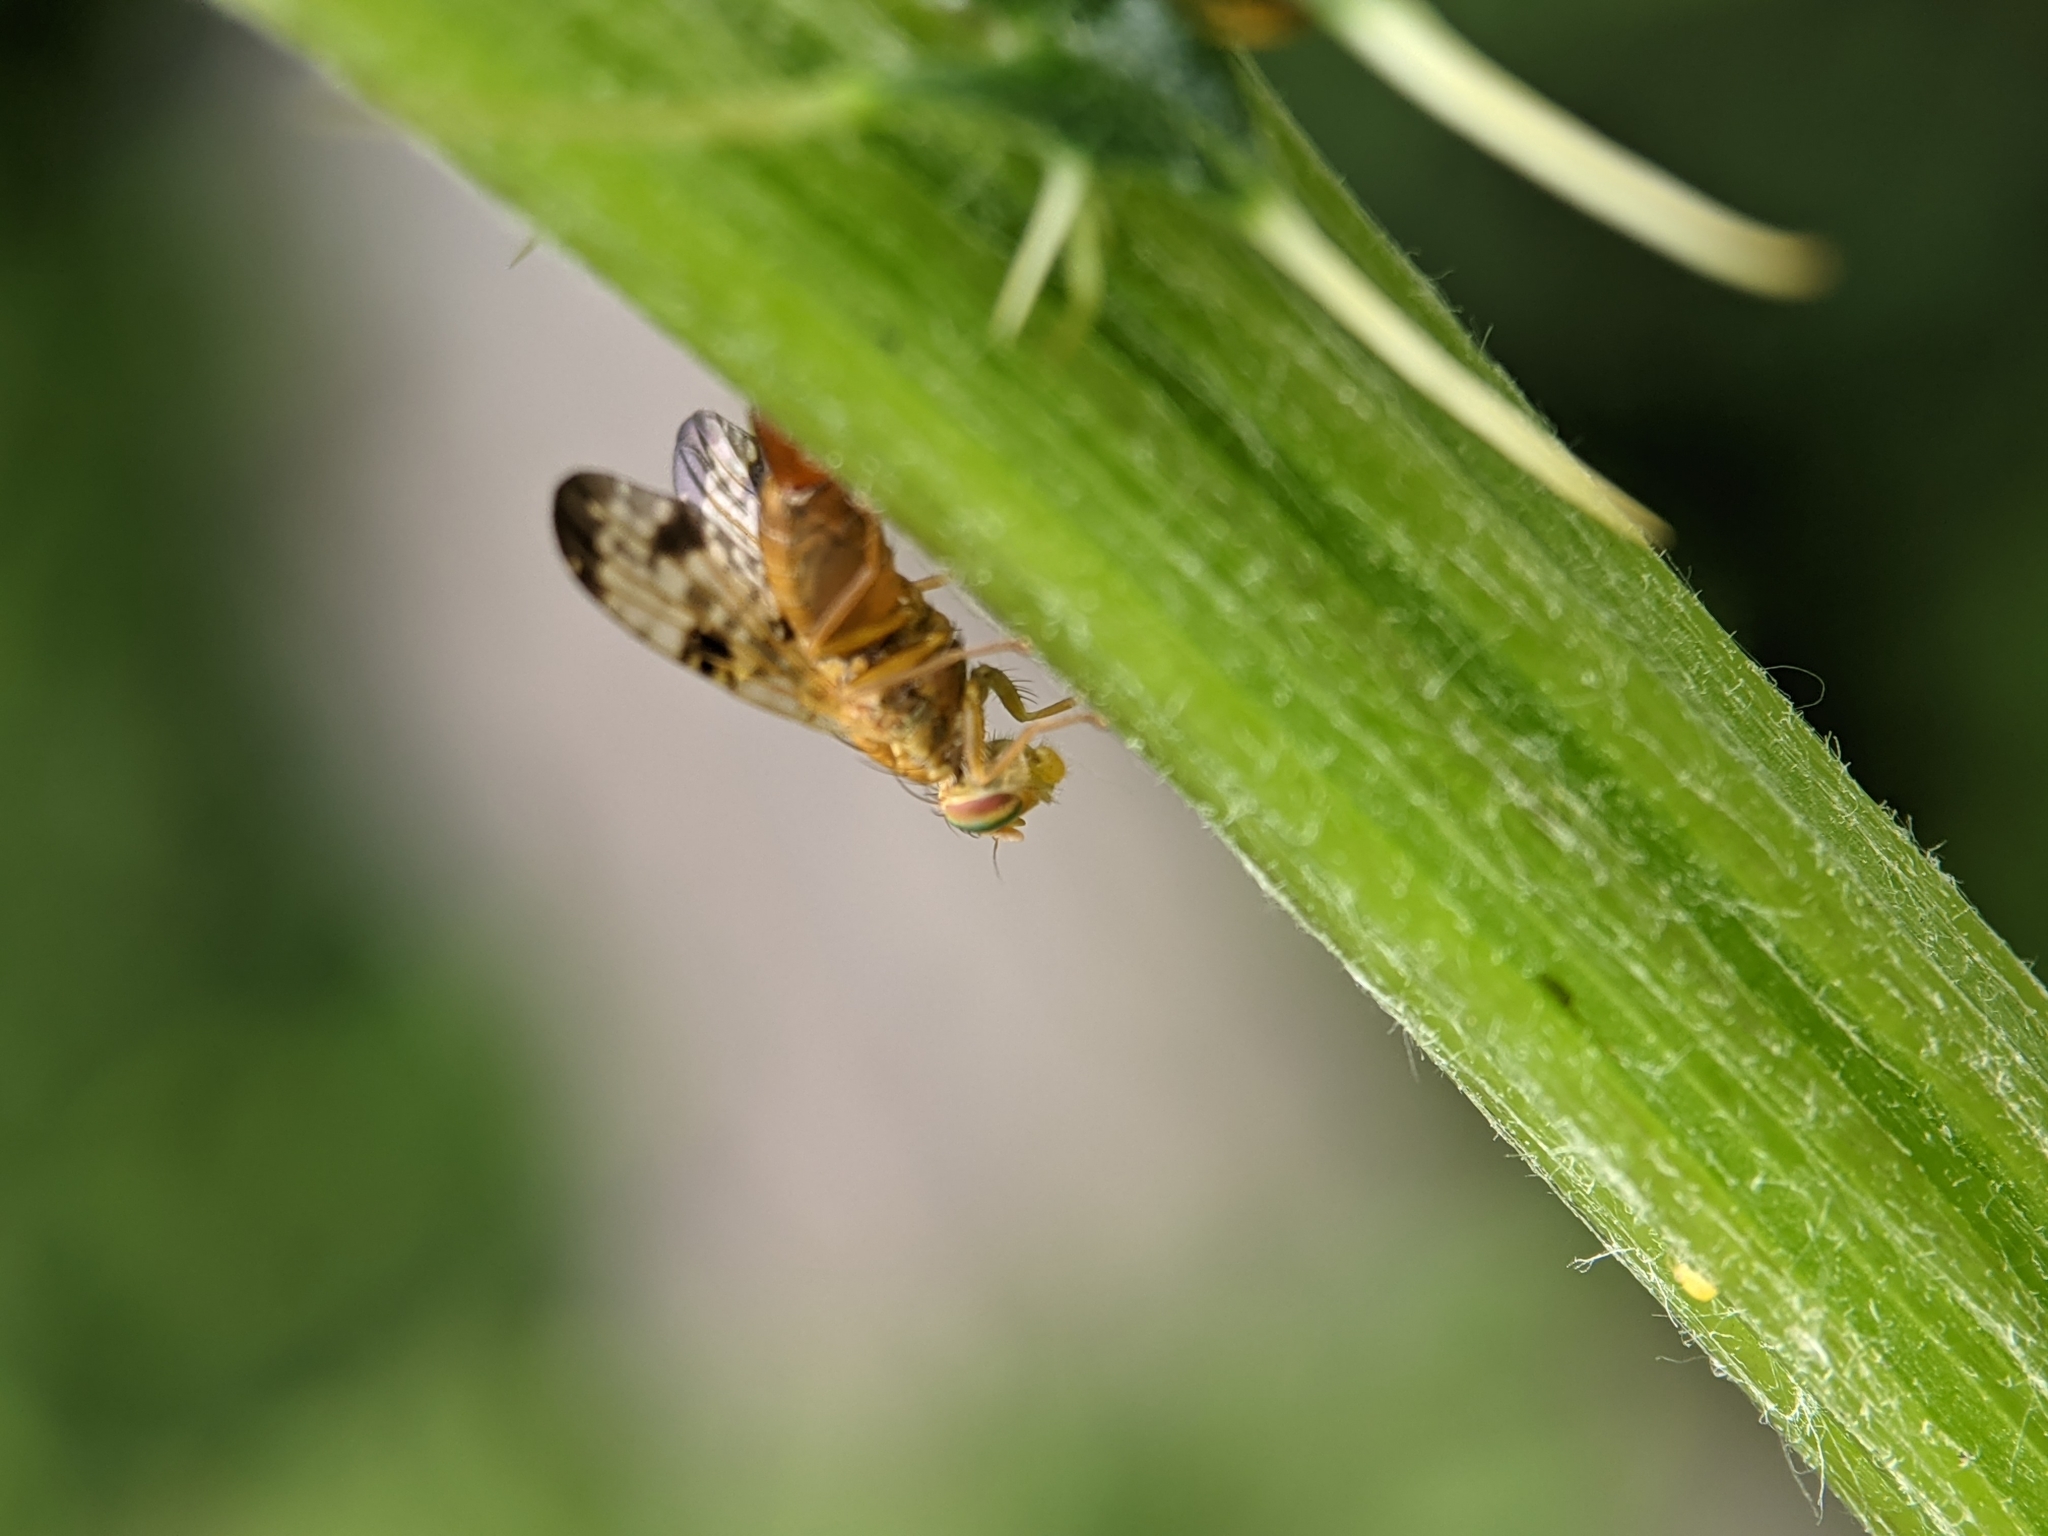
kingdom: Animalia
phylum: Arthropoda
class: Insecta
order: Diptera
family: Tephritidae
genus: Xyphosia
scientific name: Xyphosia miliaria
